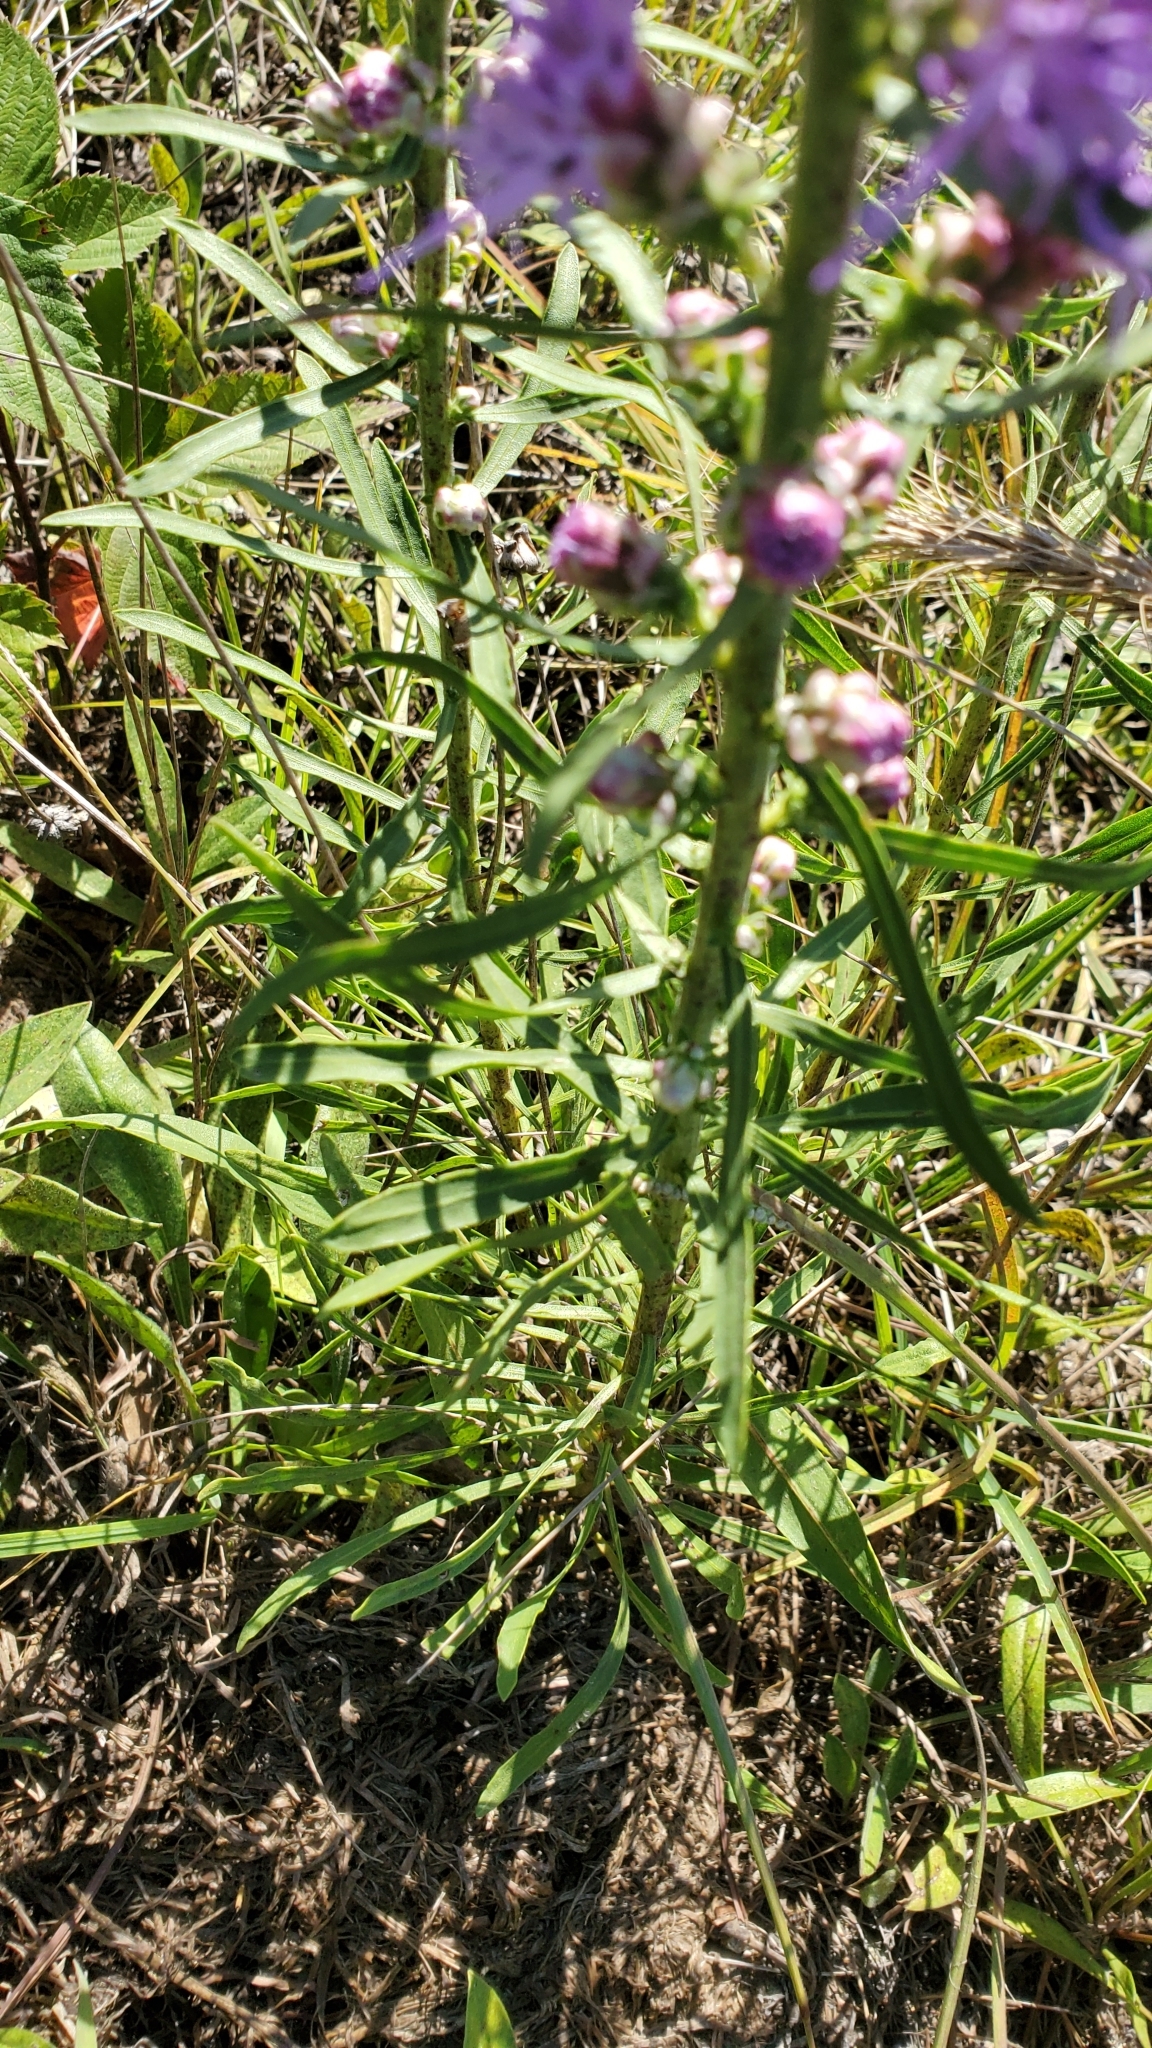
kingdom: Plantae
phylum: Tracheophyta
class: Magnoliopsida
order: Asterales
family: Asteraceae
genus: Liatris
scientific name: Liatris aspera
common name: Lacerate blazing-star
